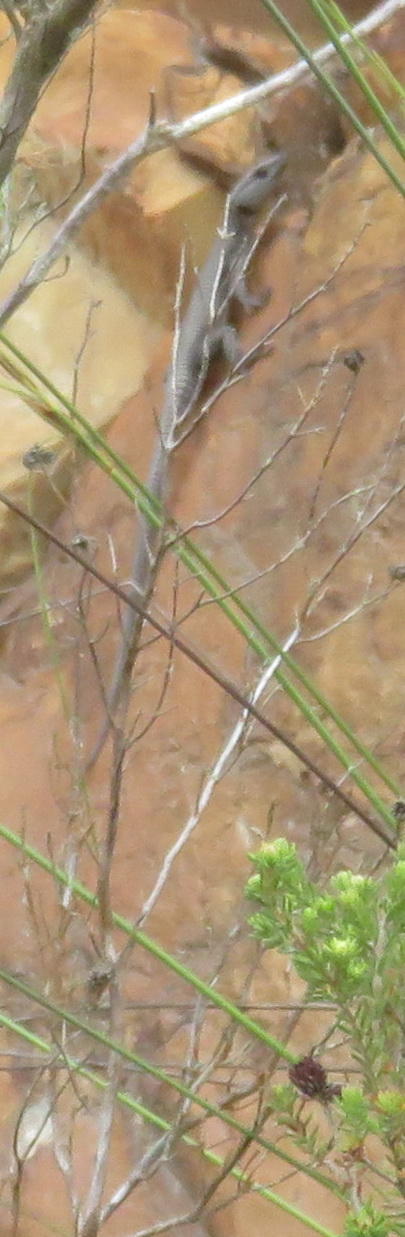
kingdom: Animalia
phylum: Chordata
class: Squamata
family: Cordylidae
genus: Ninurta
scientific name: Ninurta coeruleopunctatus
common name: Blue-spotted girdled lizard
